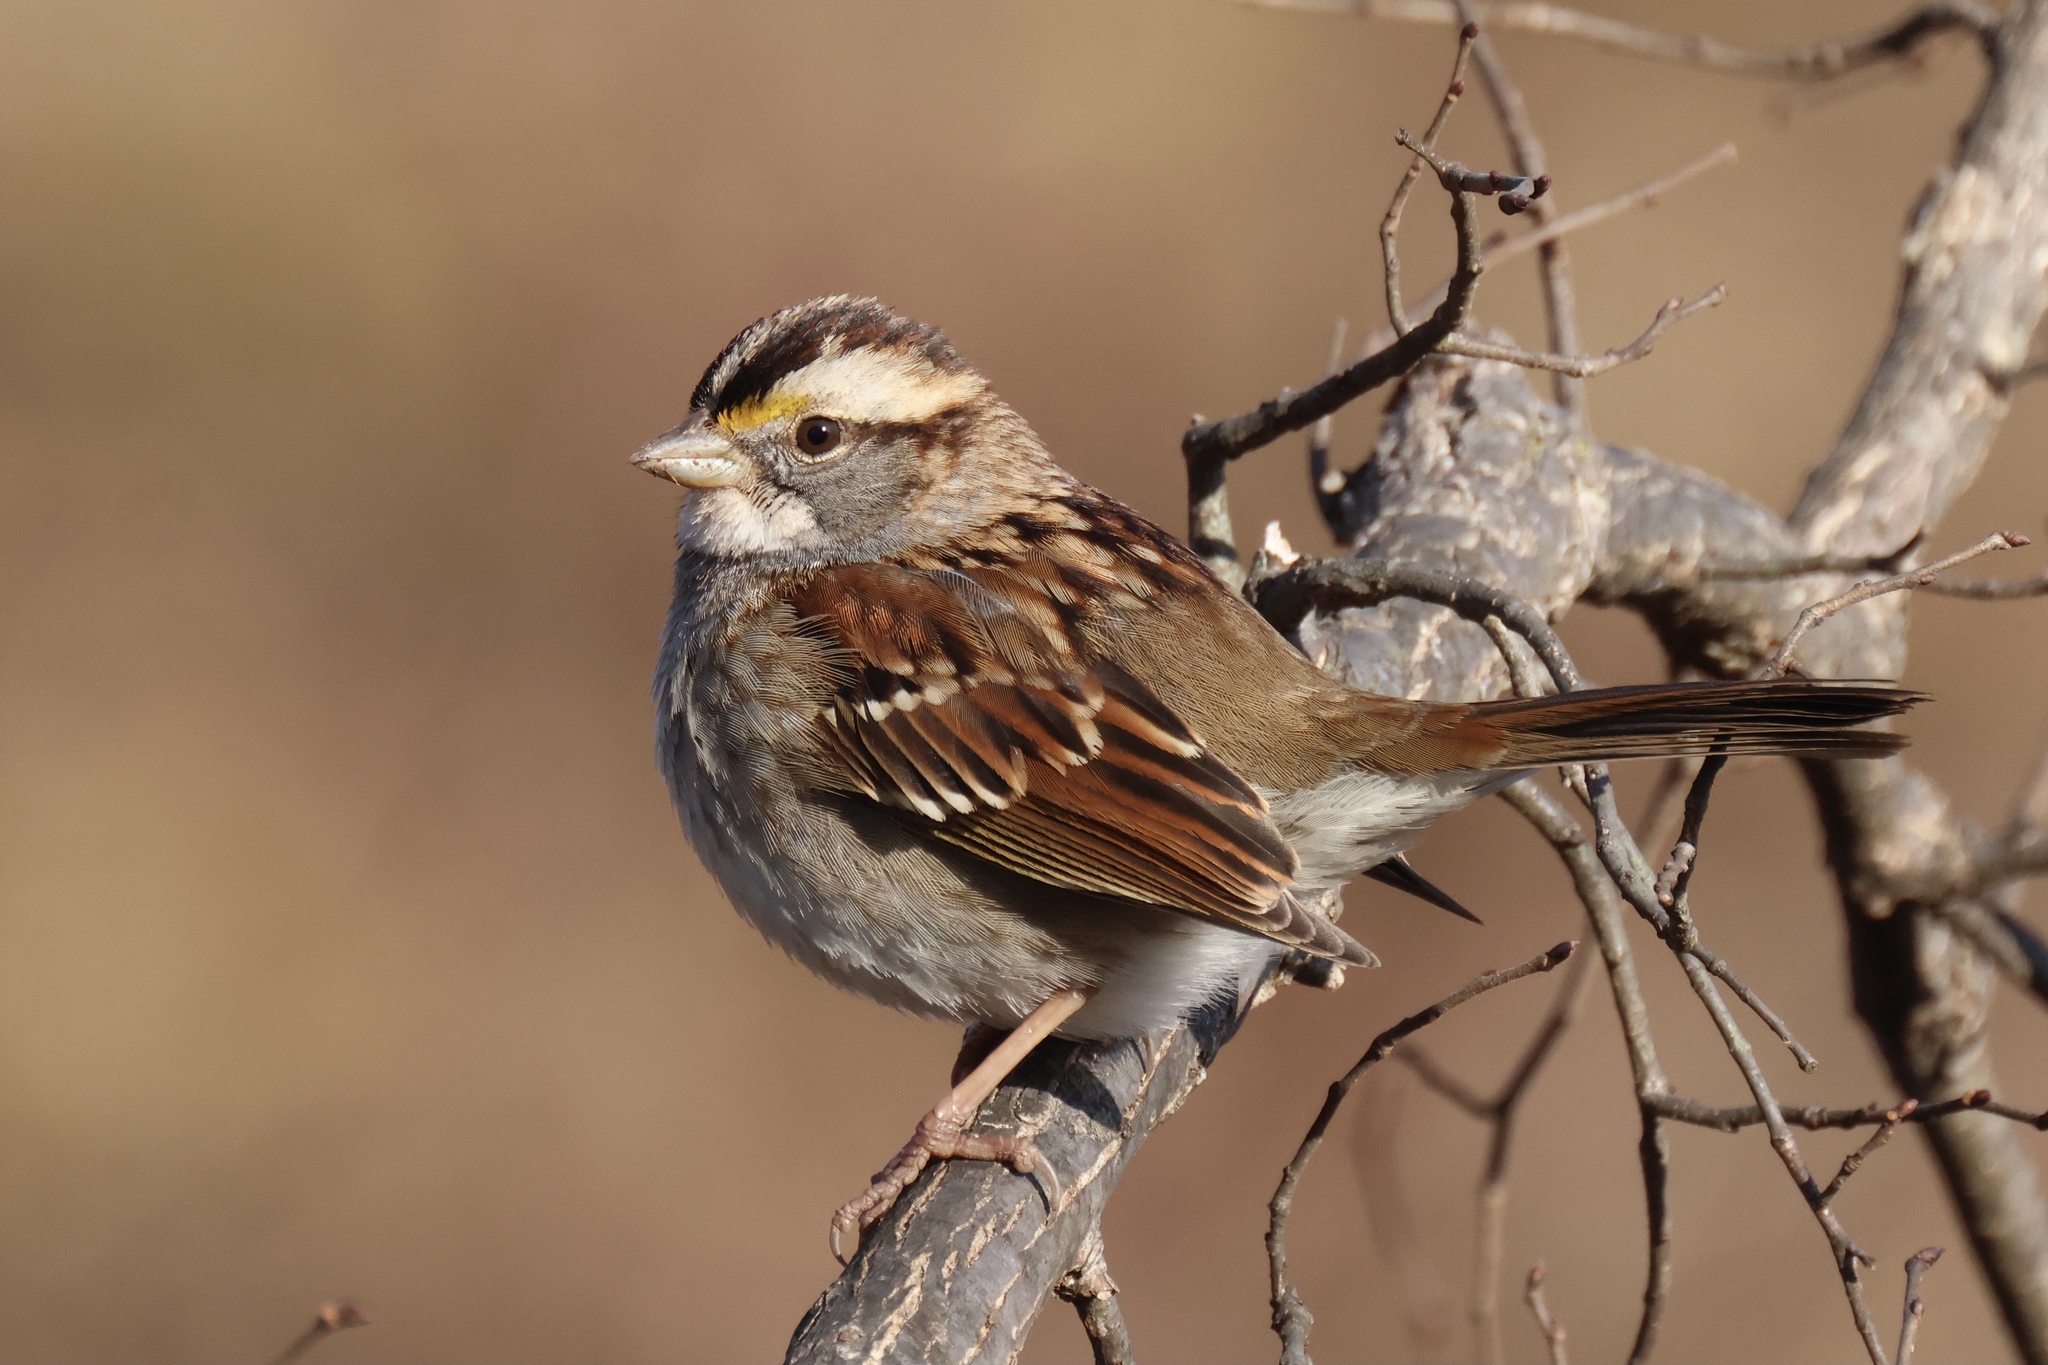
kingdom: Animalia
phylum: Chordata
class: Aves
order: Passeriformes
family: Passerellidae
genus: Zonotrichia
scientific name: Zonotrichia albicollis
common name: White-throated sparrow
